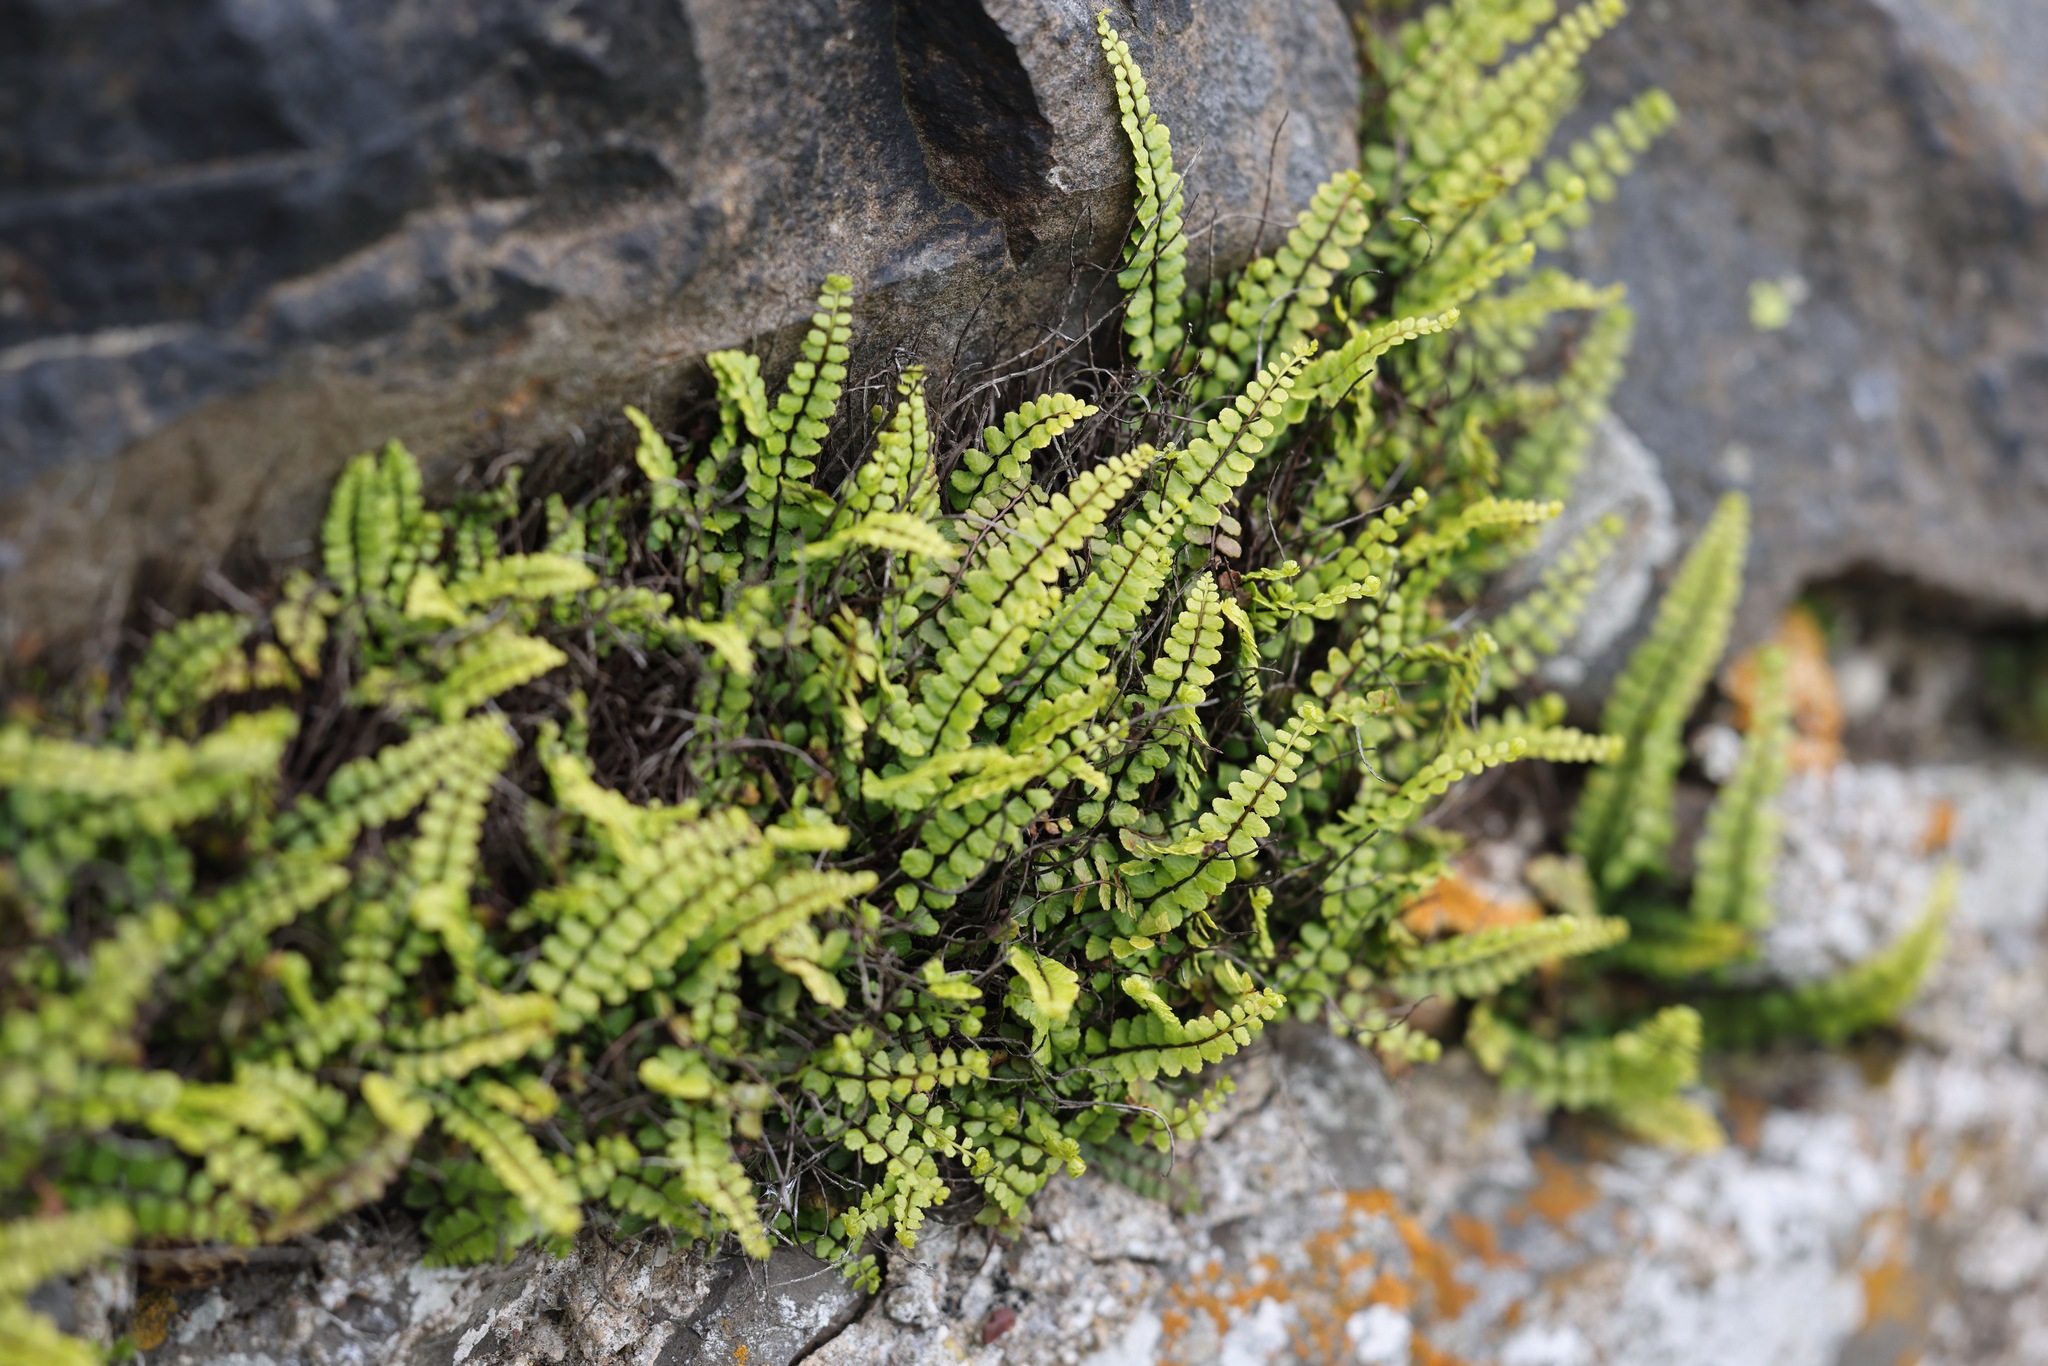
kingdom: Plantae
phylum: Tracheophyta
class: Polypodiopsida
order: Polypodiales
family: Aspleniaceae
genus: Asplenium
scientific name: Asplenium trichomanes
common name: Maidenhair spleenwort
